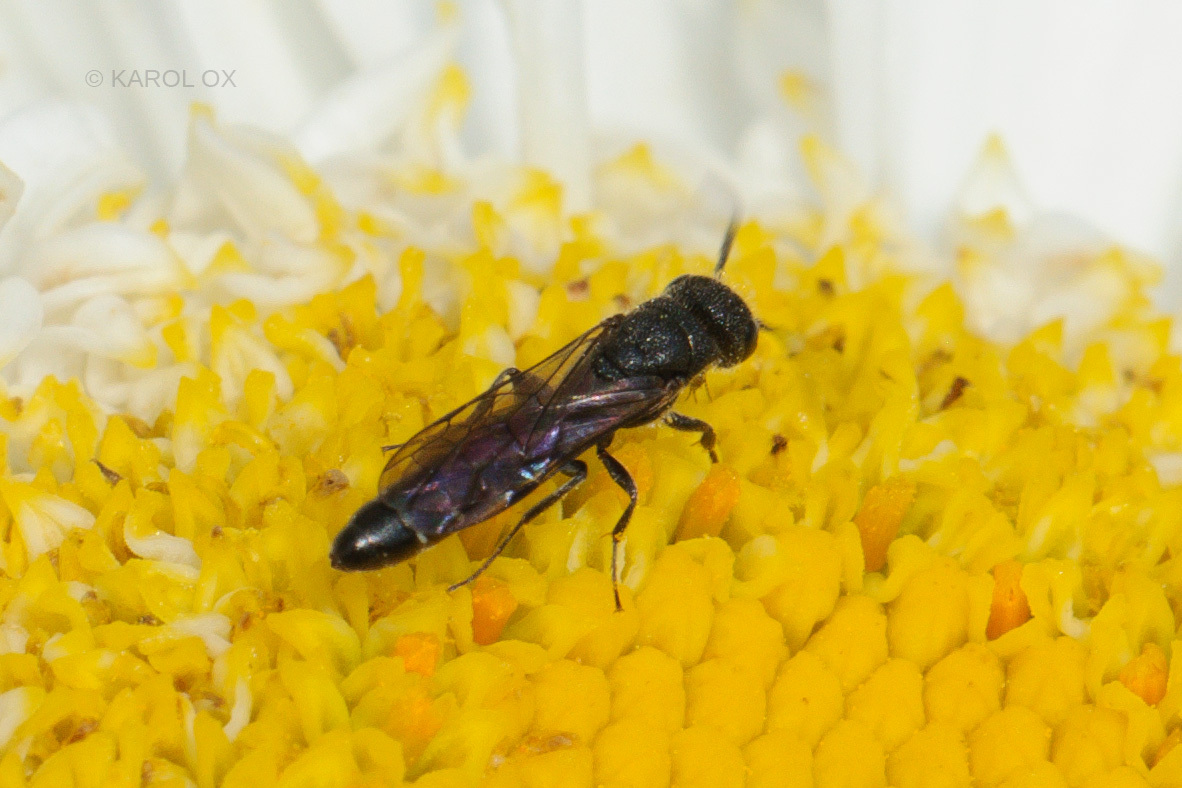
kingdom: Animalia
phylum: Arthropoda
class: Insecta
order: Hymenoptera
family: Sapygidae
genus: Sapygina
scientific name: Sapygina decemguttata
